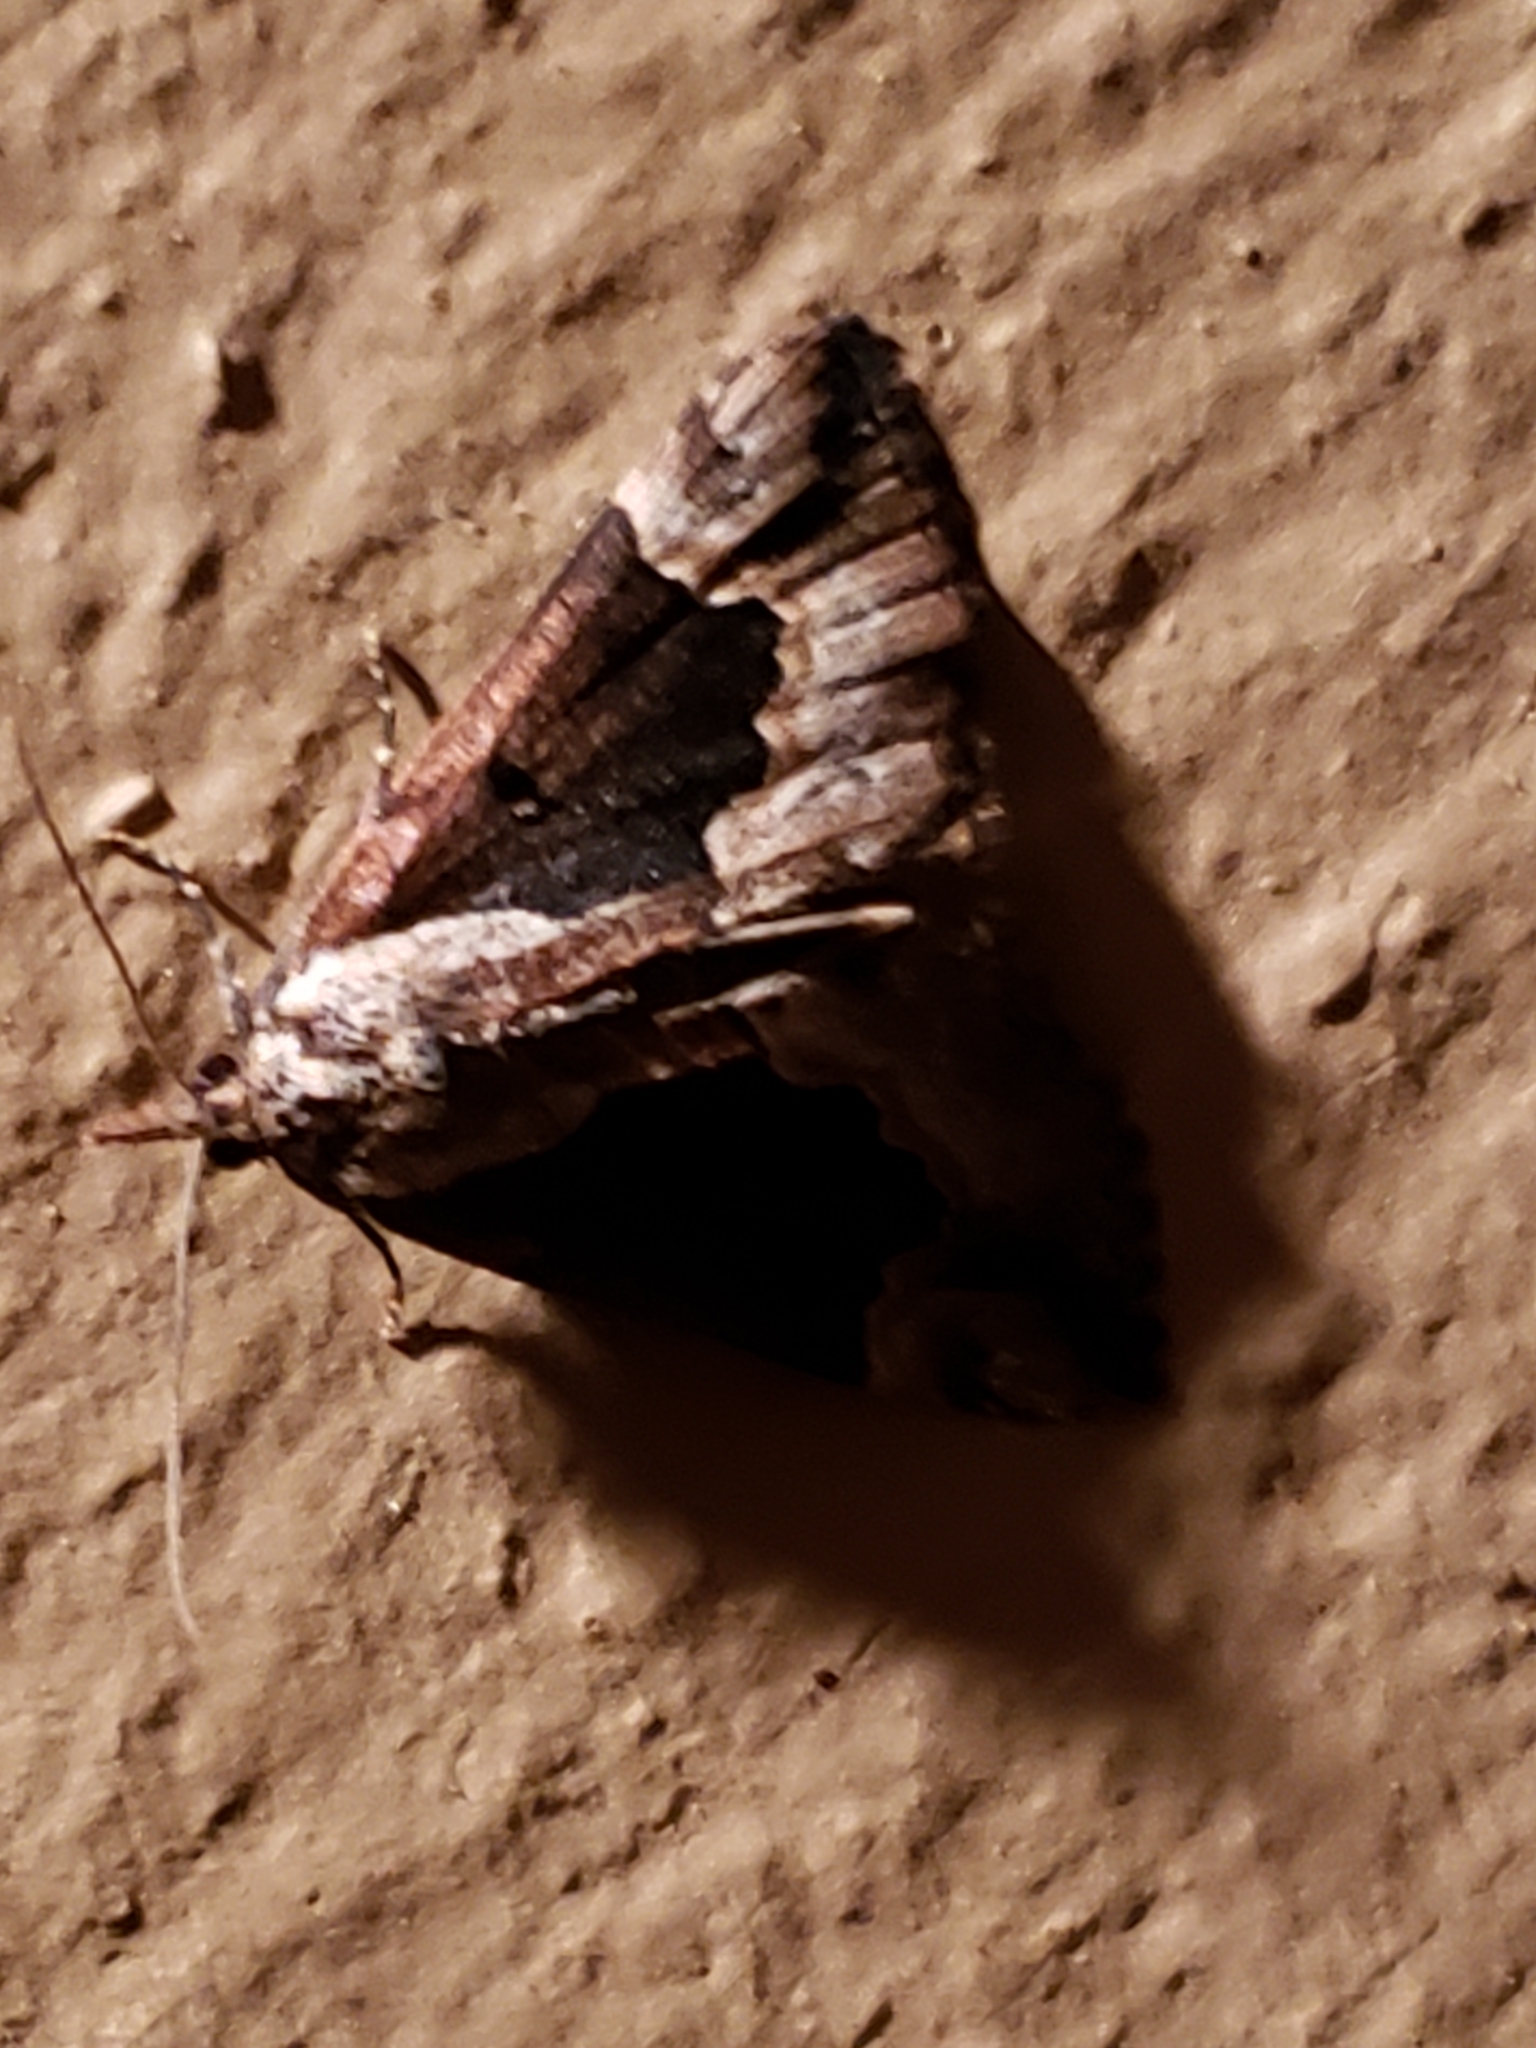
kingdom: Animalia
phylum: Arthropoda
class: Insecta
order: Lepidoptera
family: Erebidae
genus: Hypena
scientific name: Hypena baltimoralis
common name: Baltimore snout
